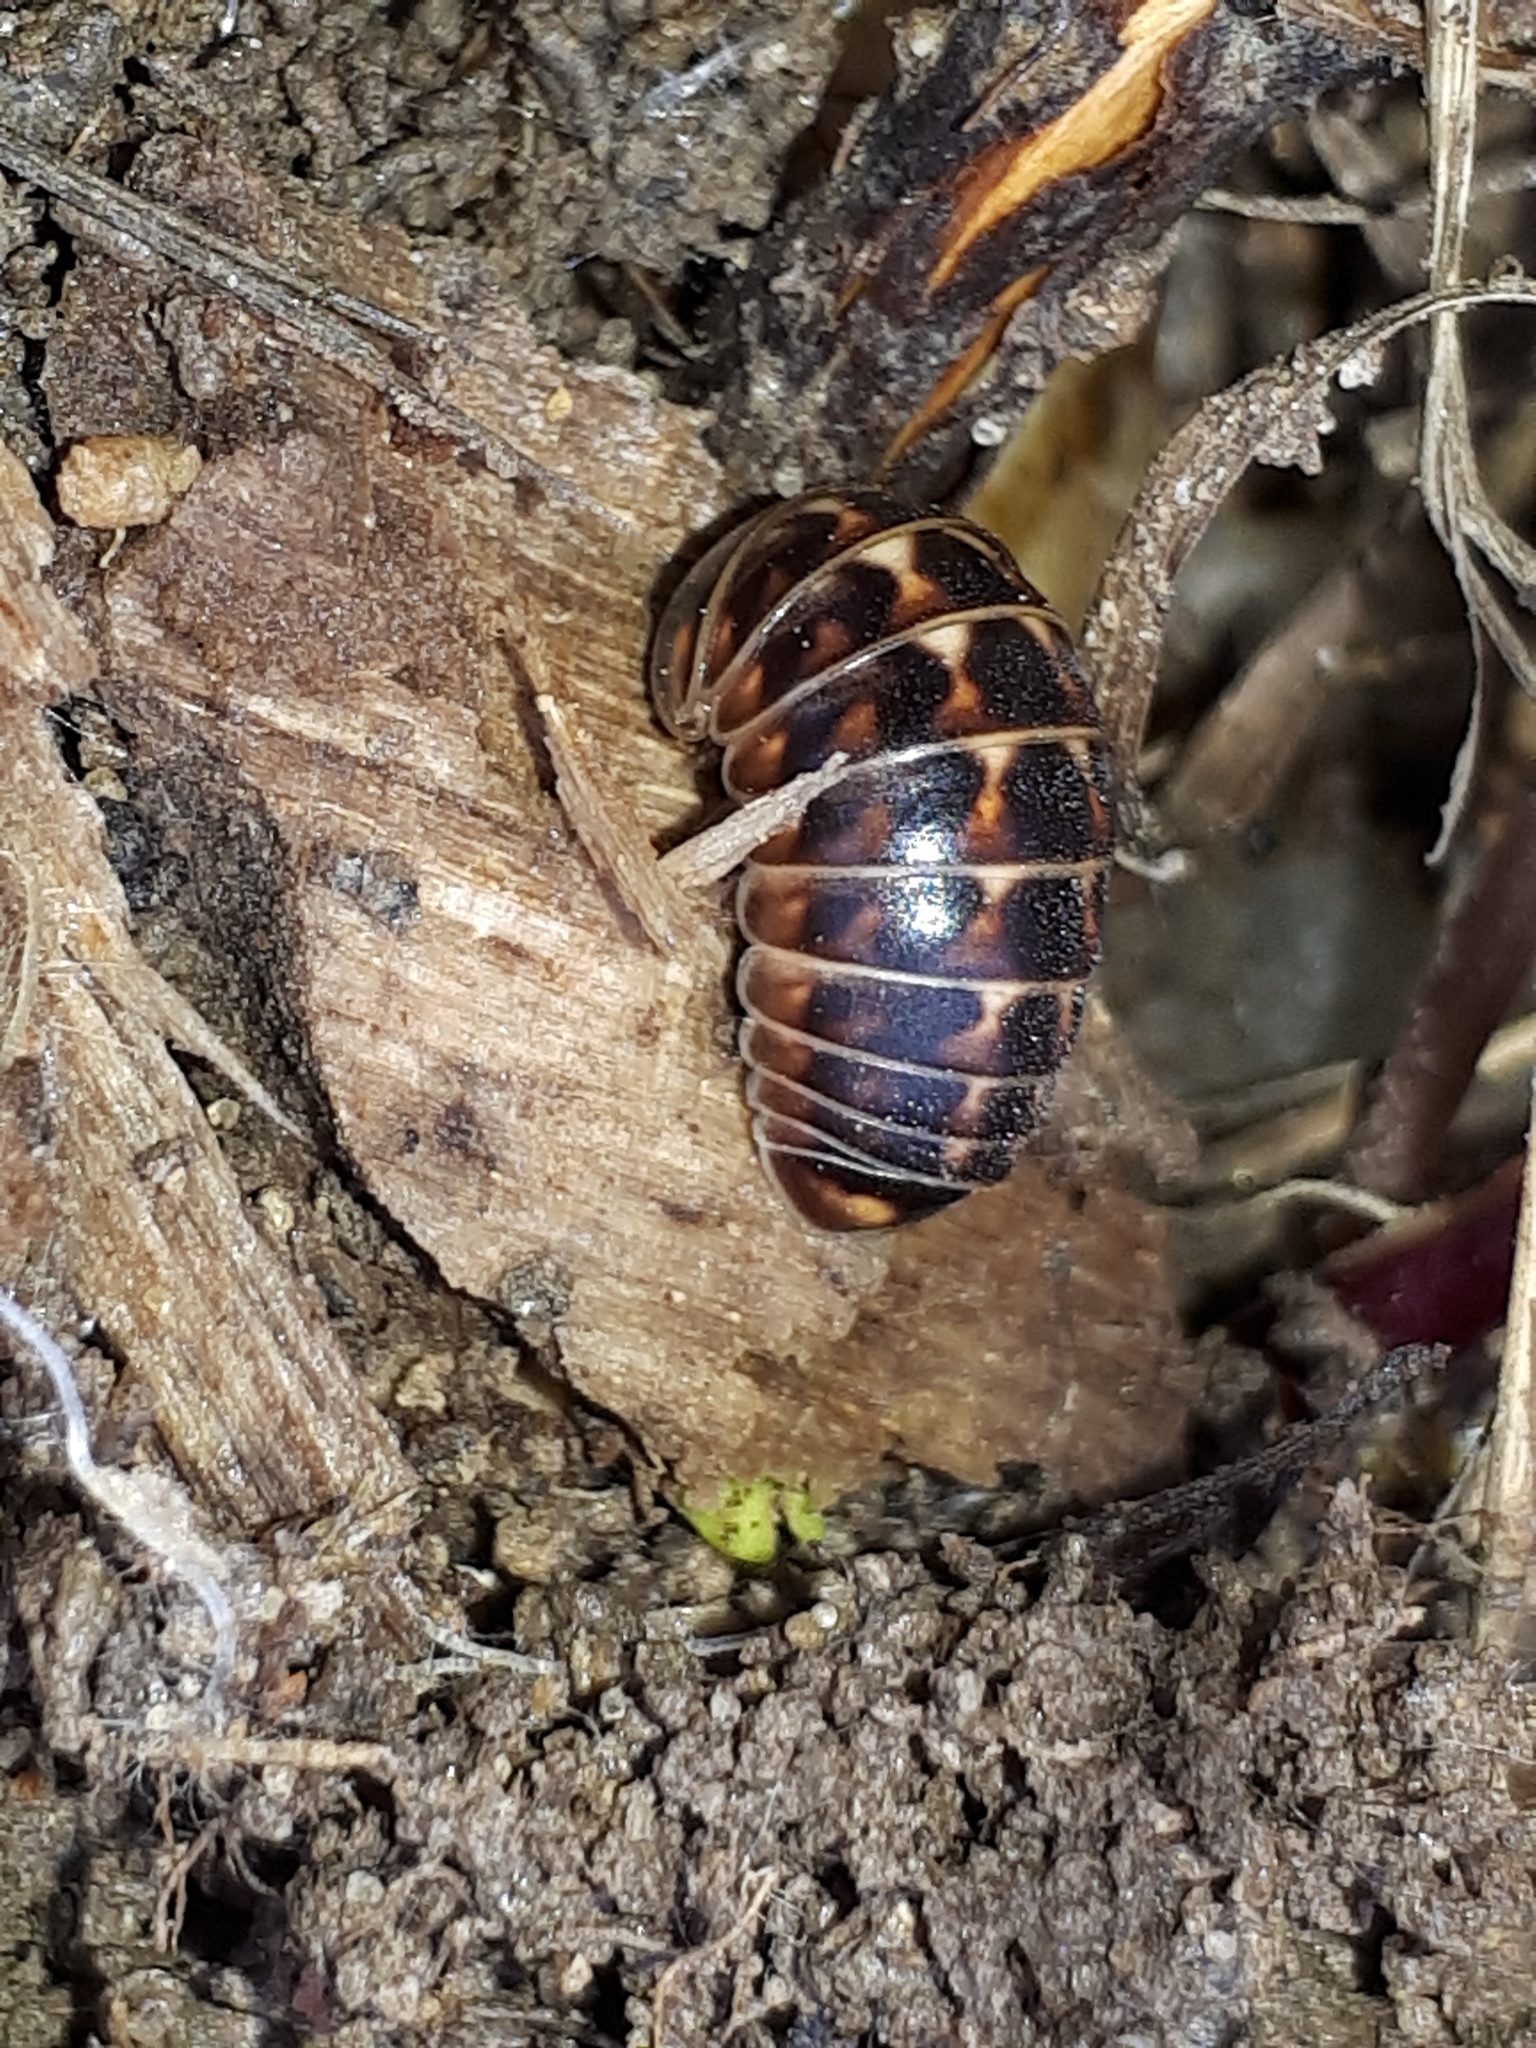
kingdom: Animalia
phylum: Arthropoda
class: Diplopoda
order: Glomerida
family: Glomeridae
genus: Glomeris
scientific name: Glomeris hexasticha
